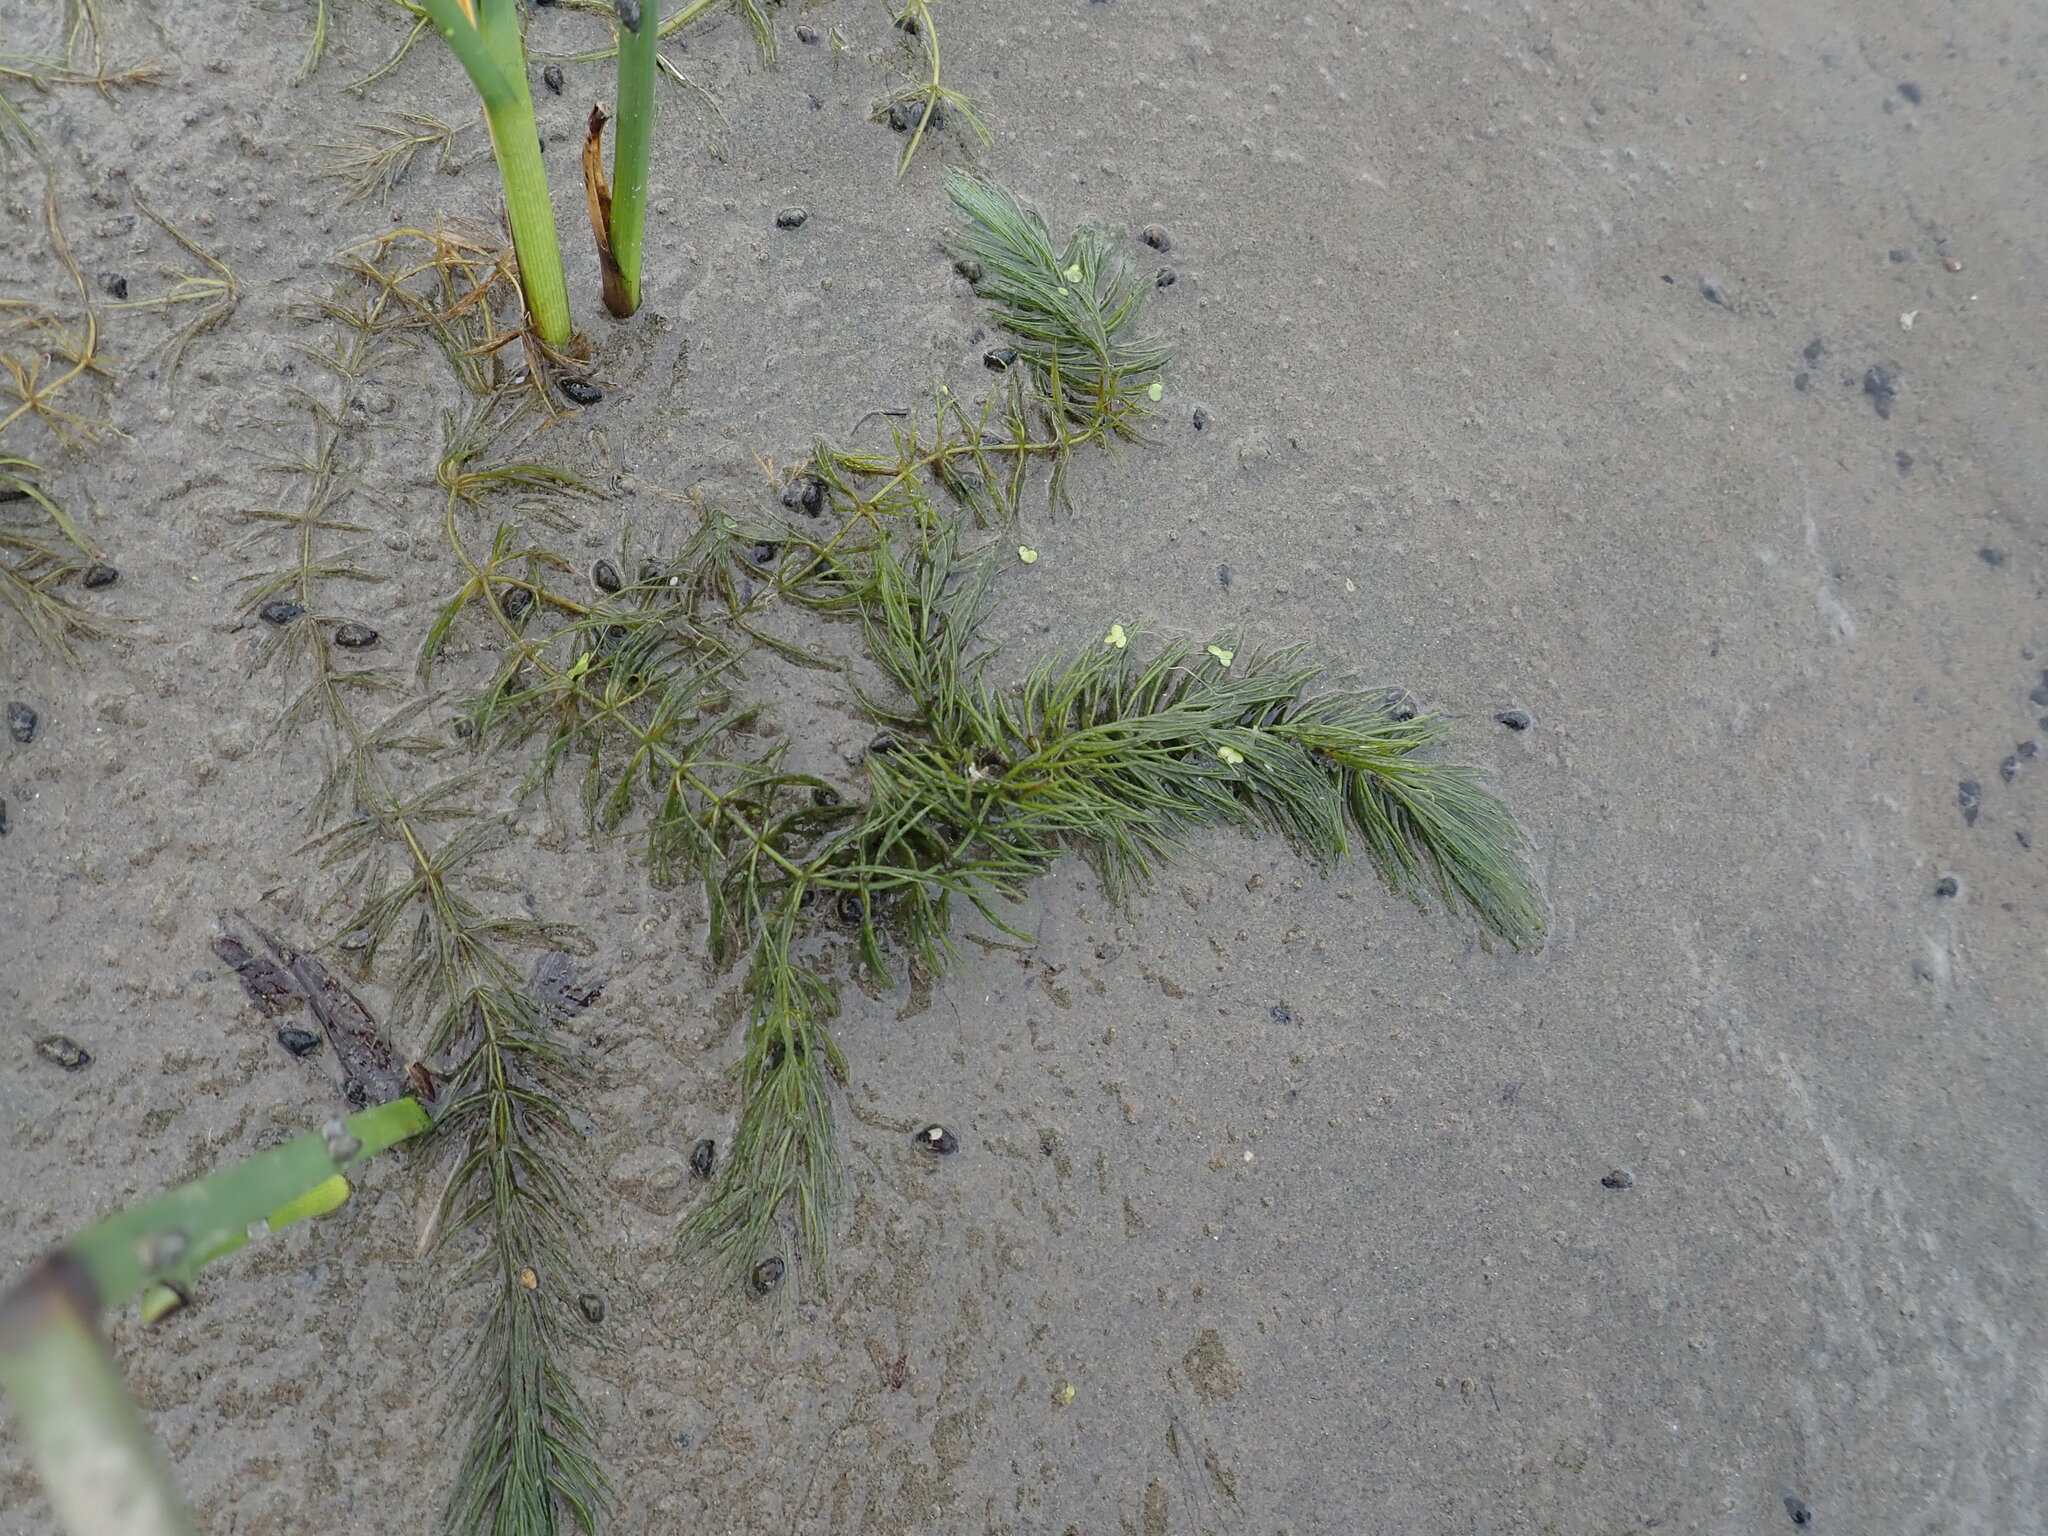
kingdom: Plantae
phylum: Tracheophyta
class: Magnoliopsida
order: Ceratophyllales
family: Ceratophyllaceae
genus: Ceratophyllum
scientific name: Ceratophyllum demersum
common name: Rigid hornwort
